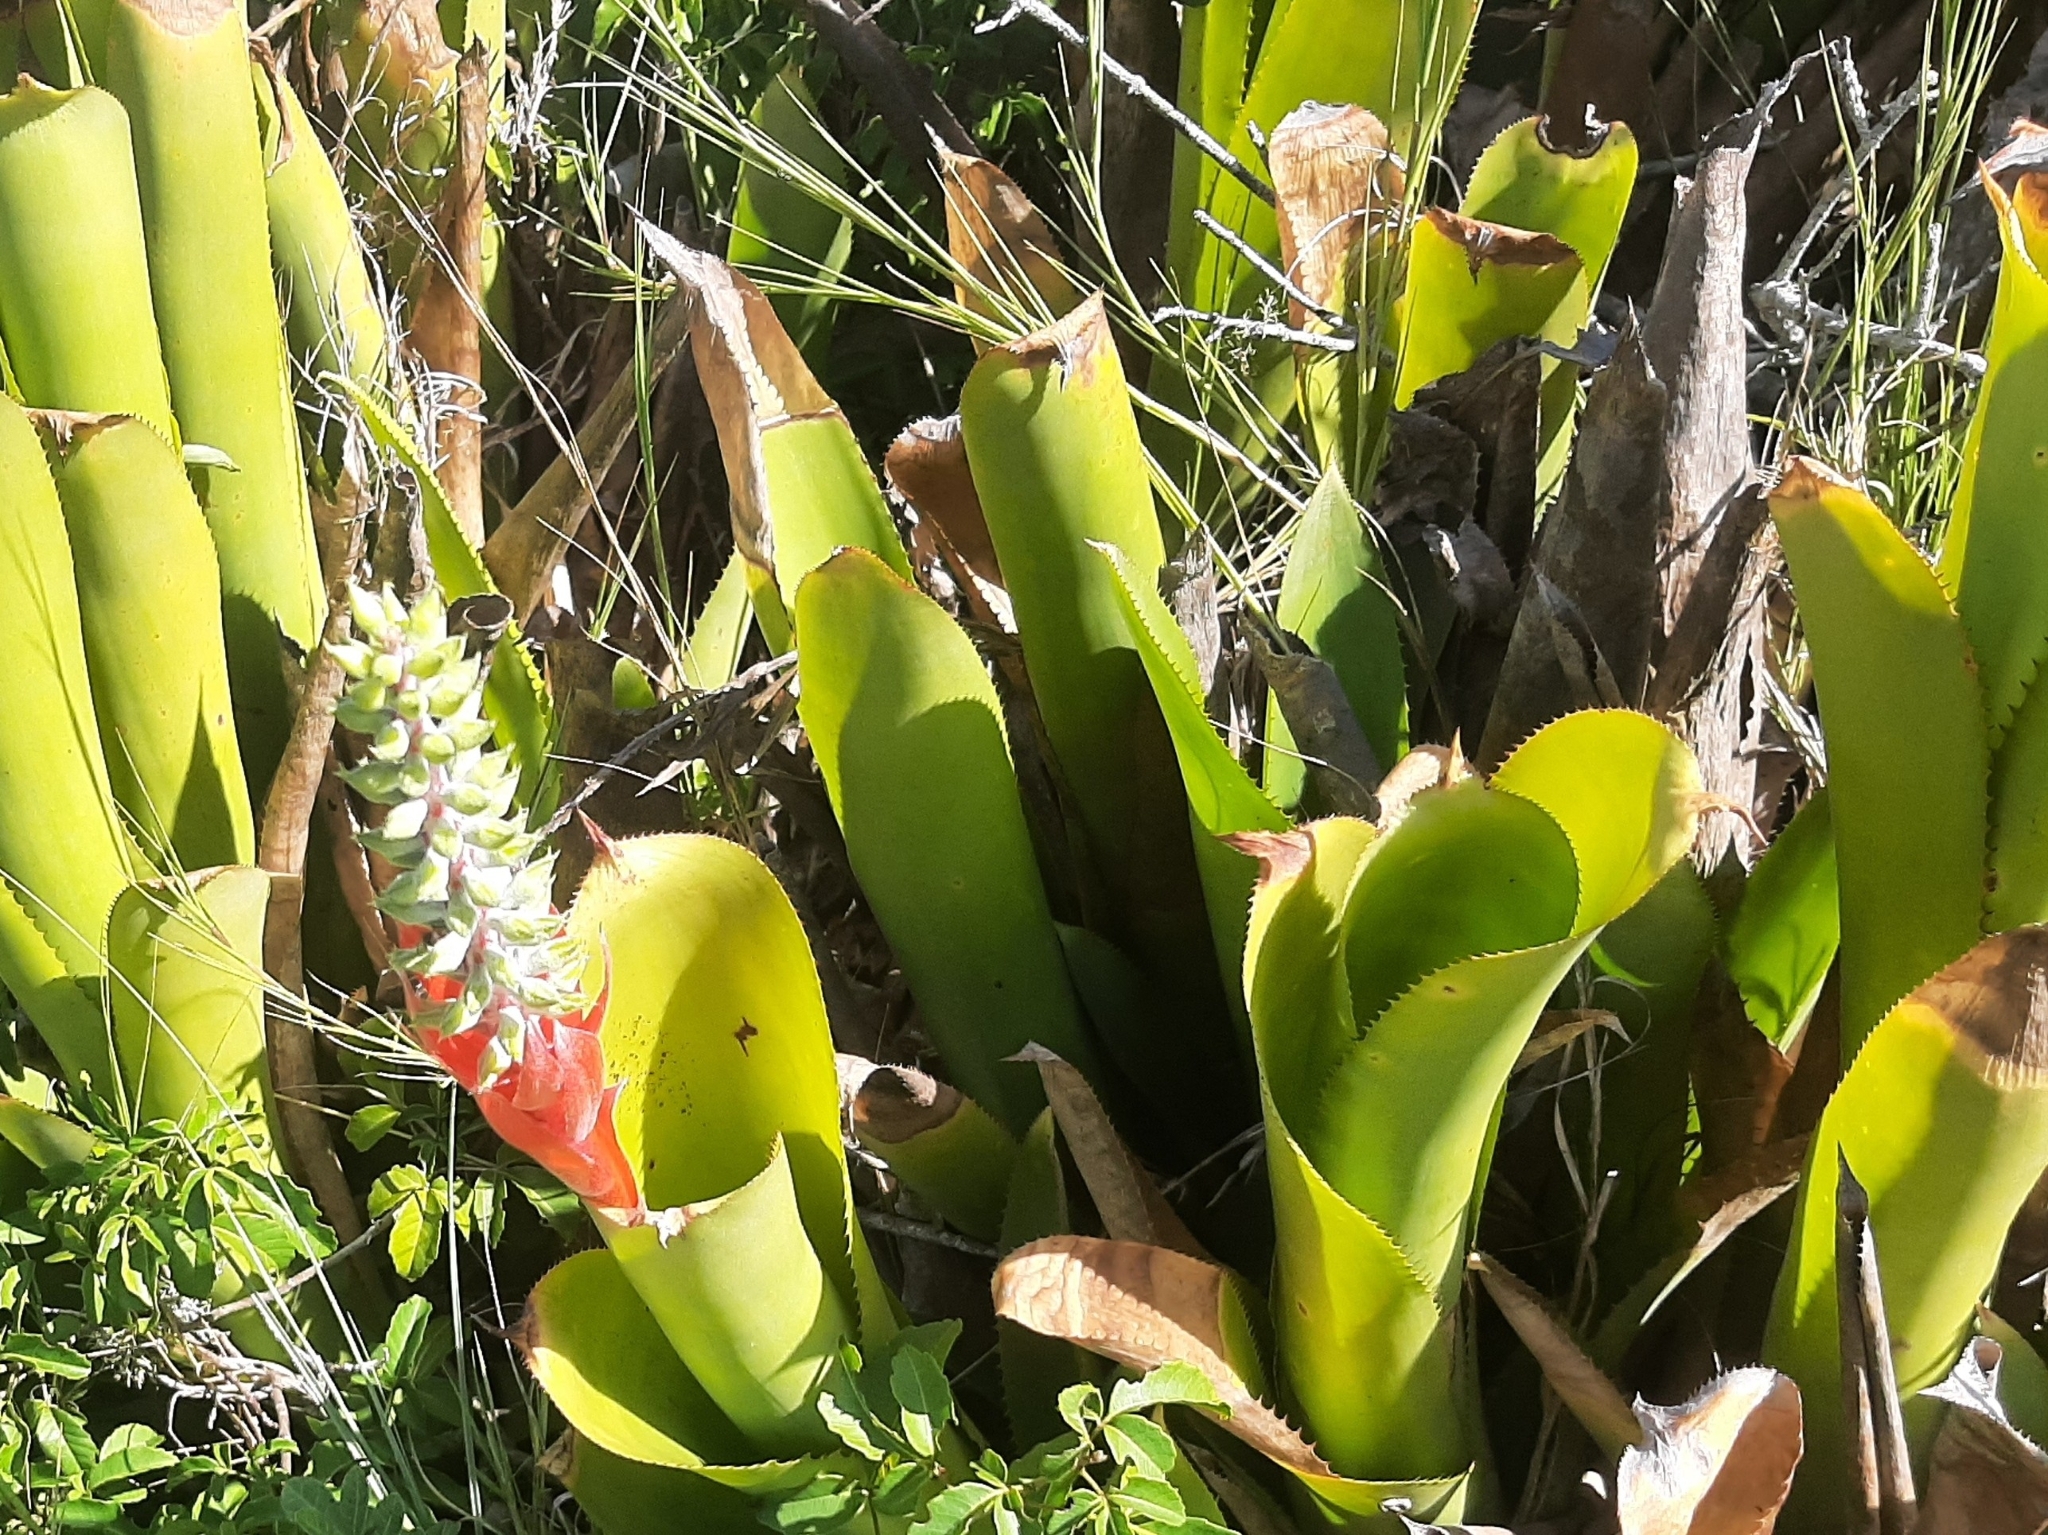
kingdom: Plantae
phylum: Tracheophyta
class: Liliopsida
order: Poales
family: Bromeliaceae
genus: Aechmea
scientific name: Aechmea nudicaulis
